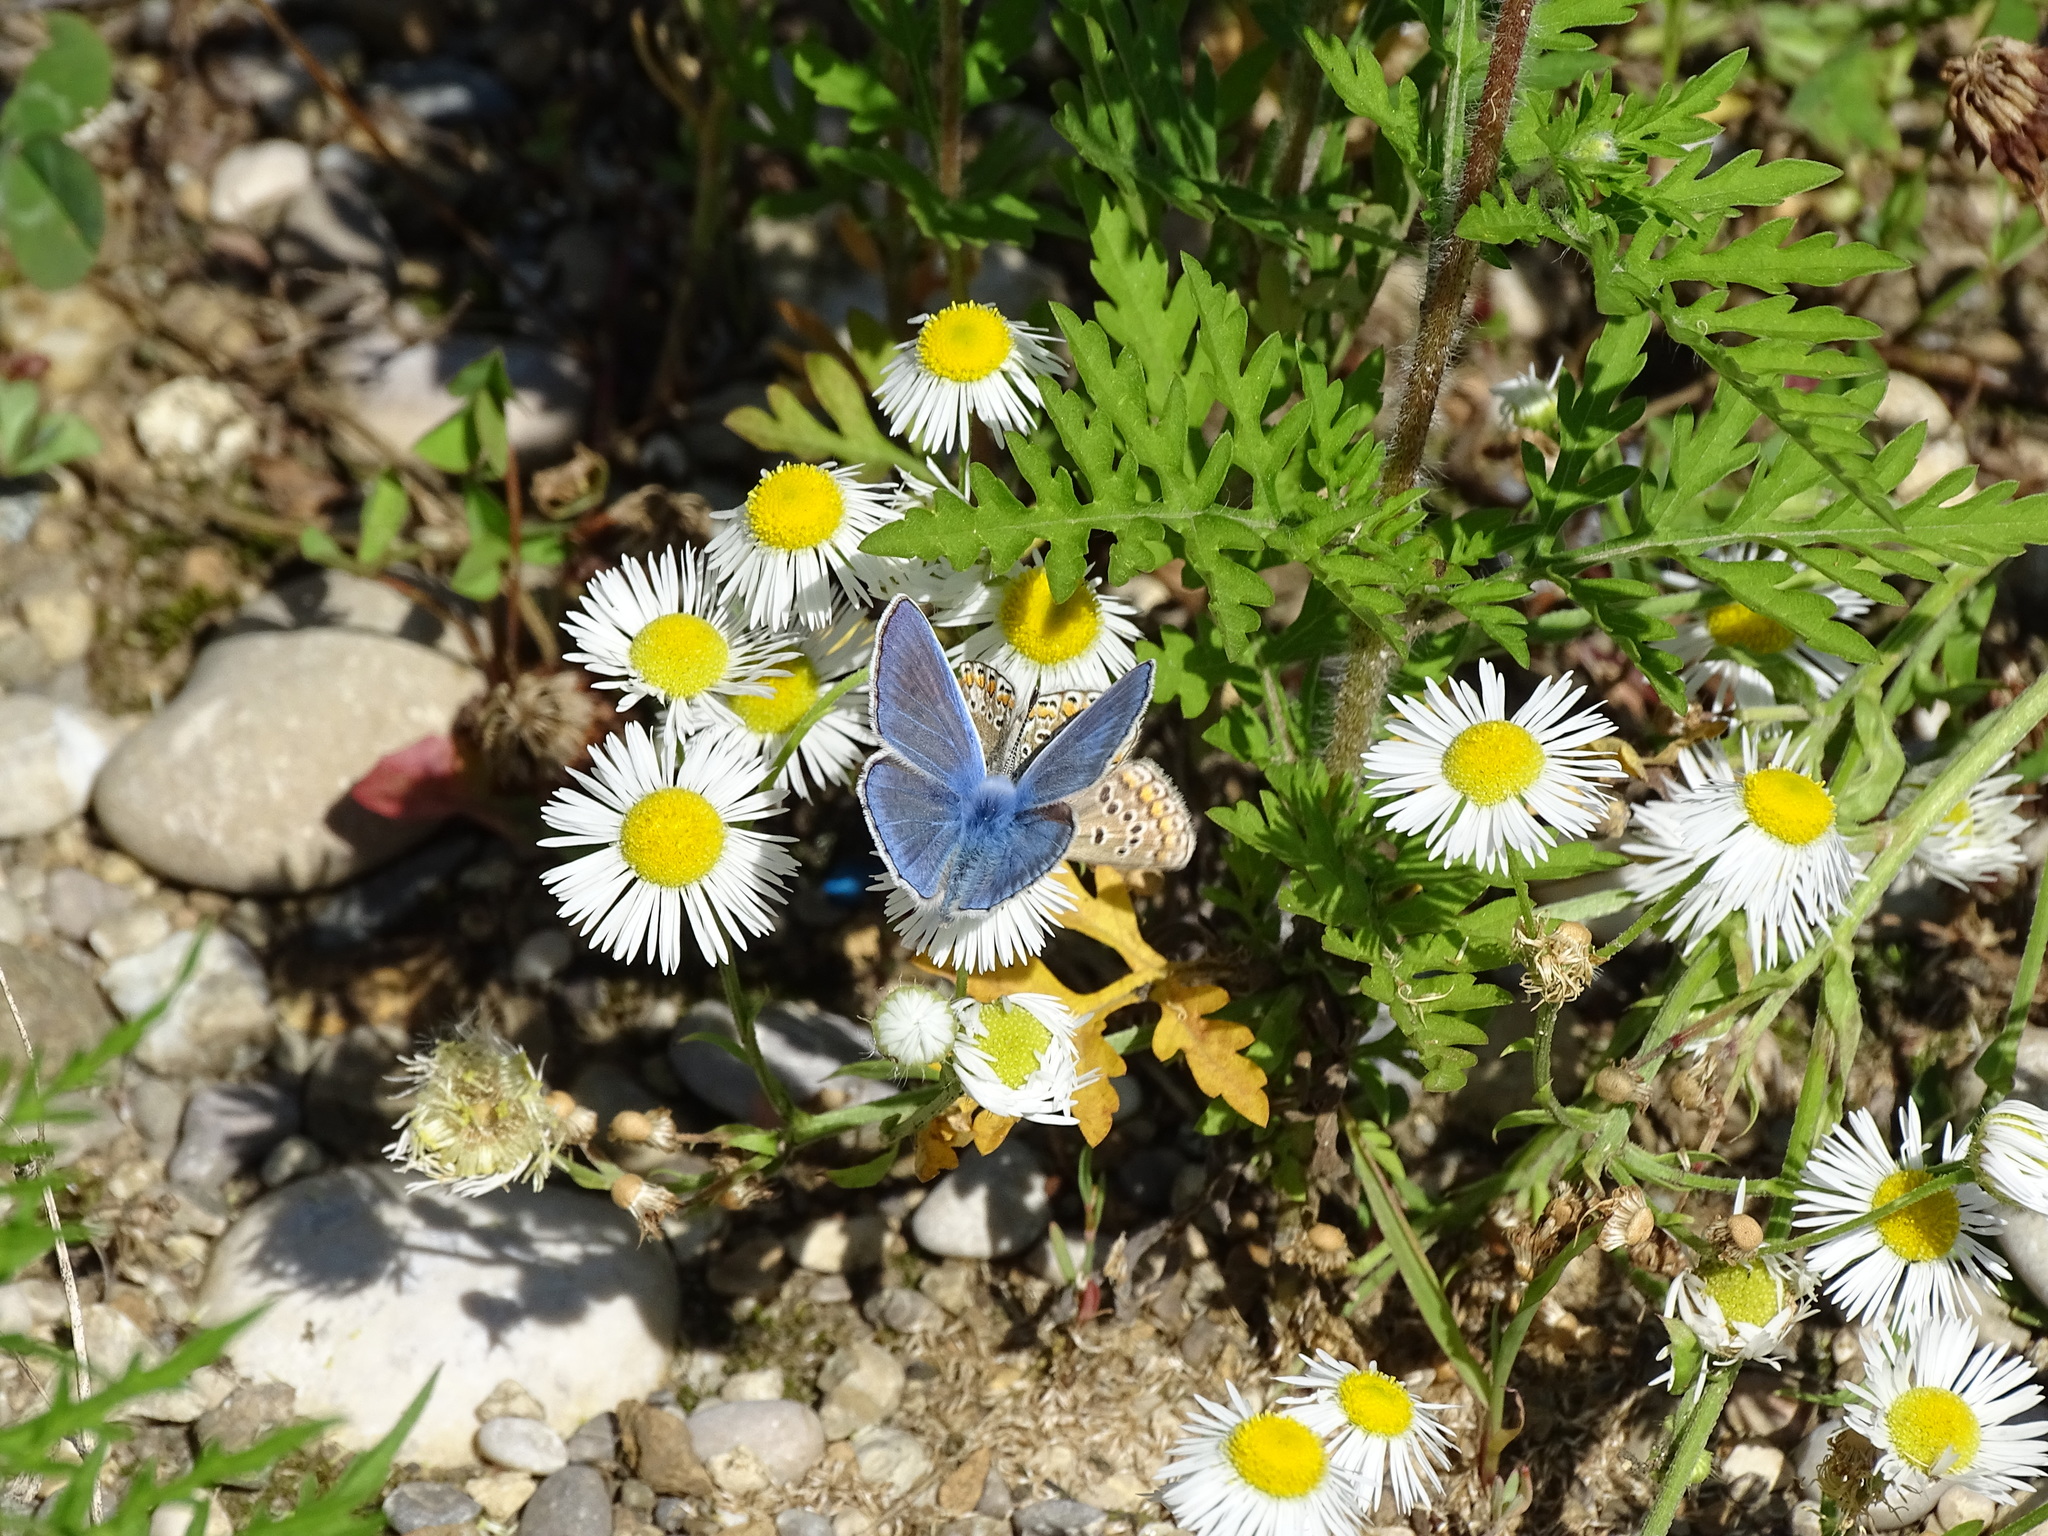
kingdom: Animalia
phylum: Arthropoda
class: Insecta
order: Lepidoptera
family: Lycaenidae
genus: Polyommatus
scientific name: Polyommatus icarus
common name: Common blue
